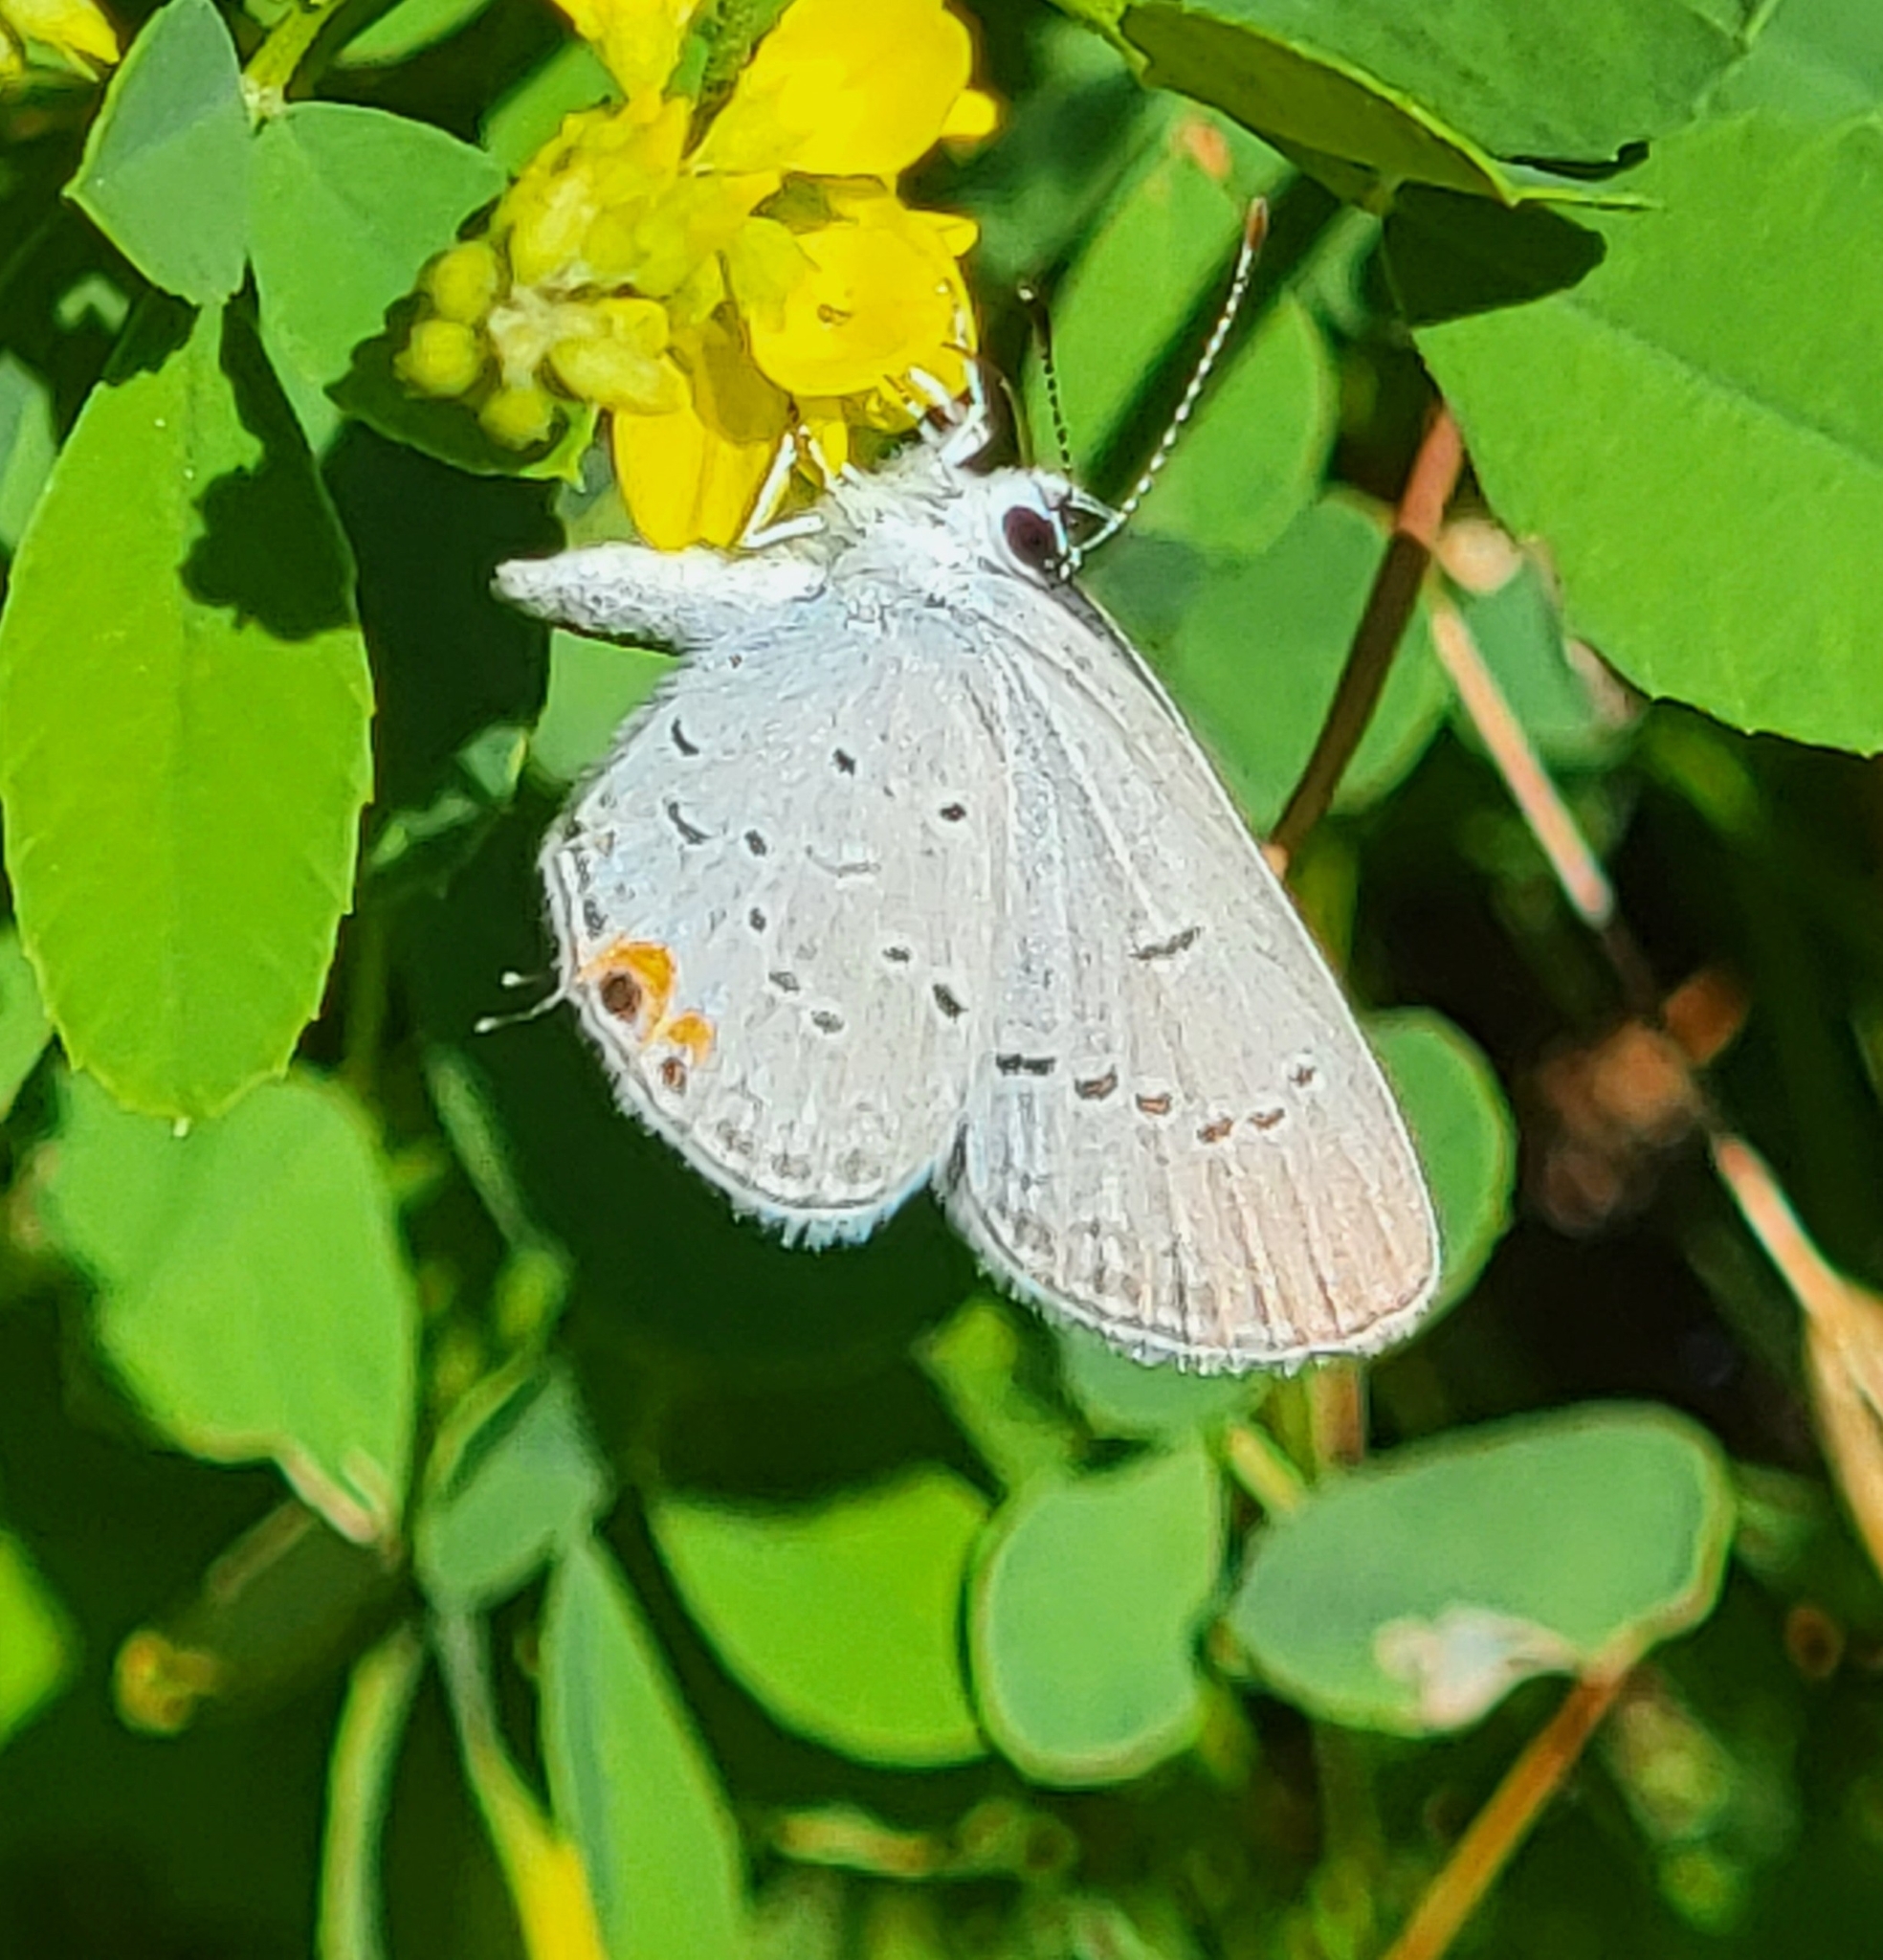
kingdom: Animalia
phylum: Arthropoda
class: Insecta
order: Lepidoptera
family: Lycaenidae
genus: Elkalyce
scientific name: Elkalyce comyntas
